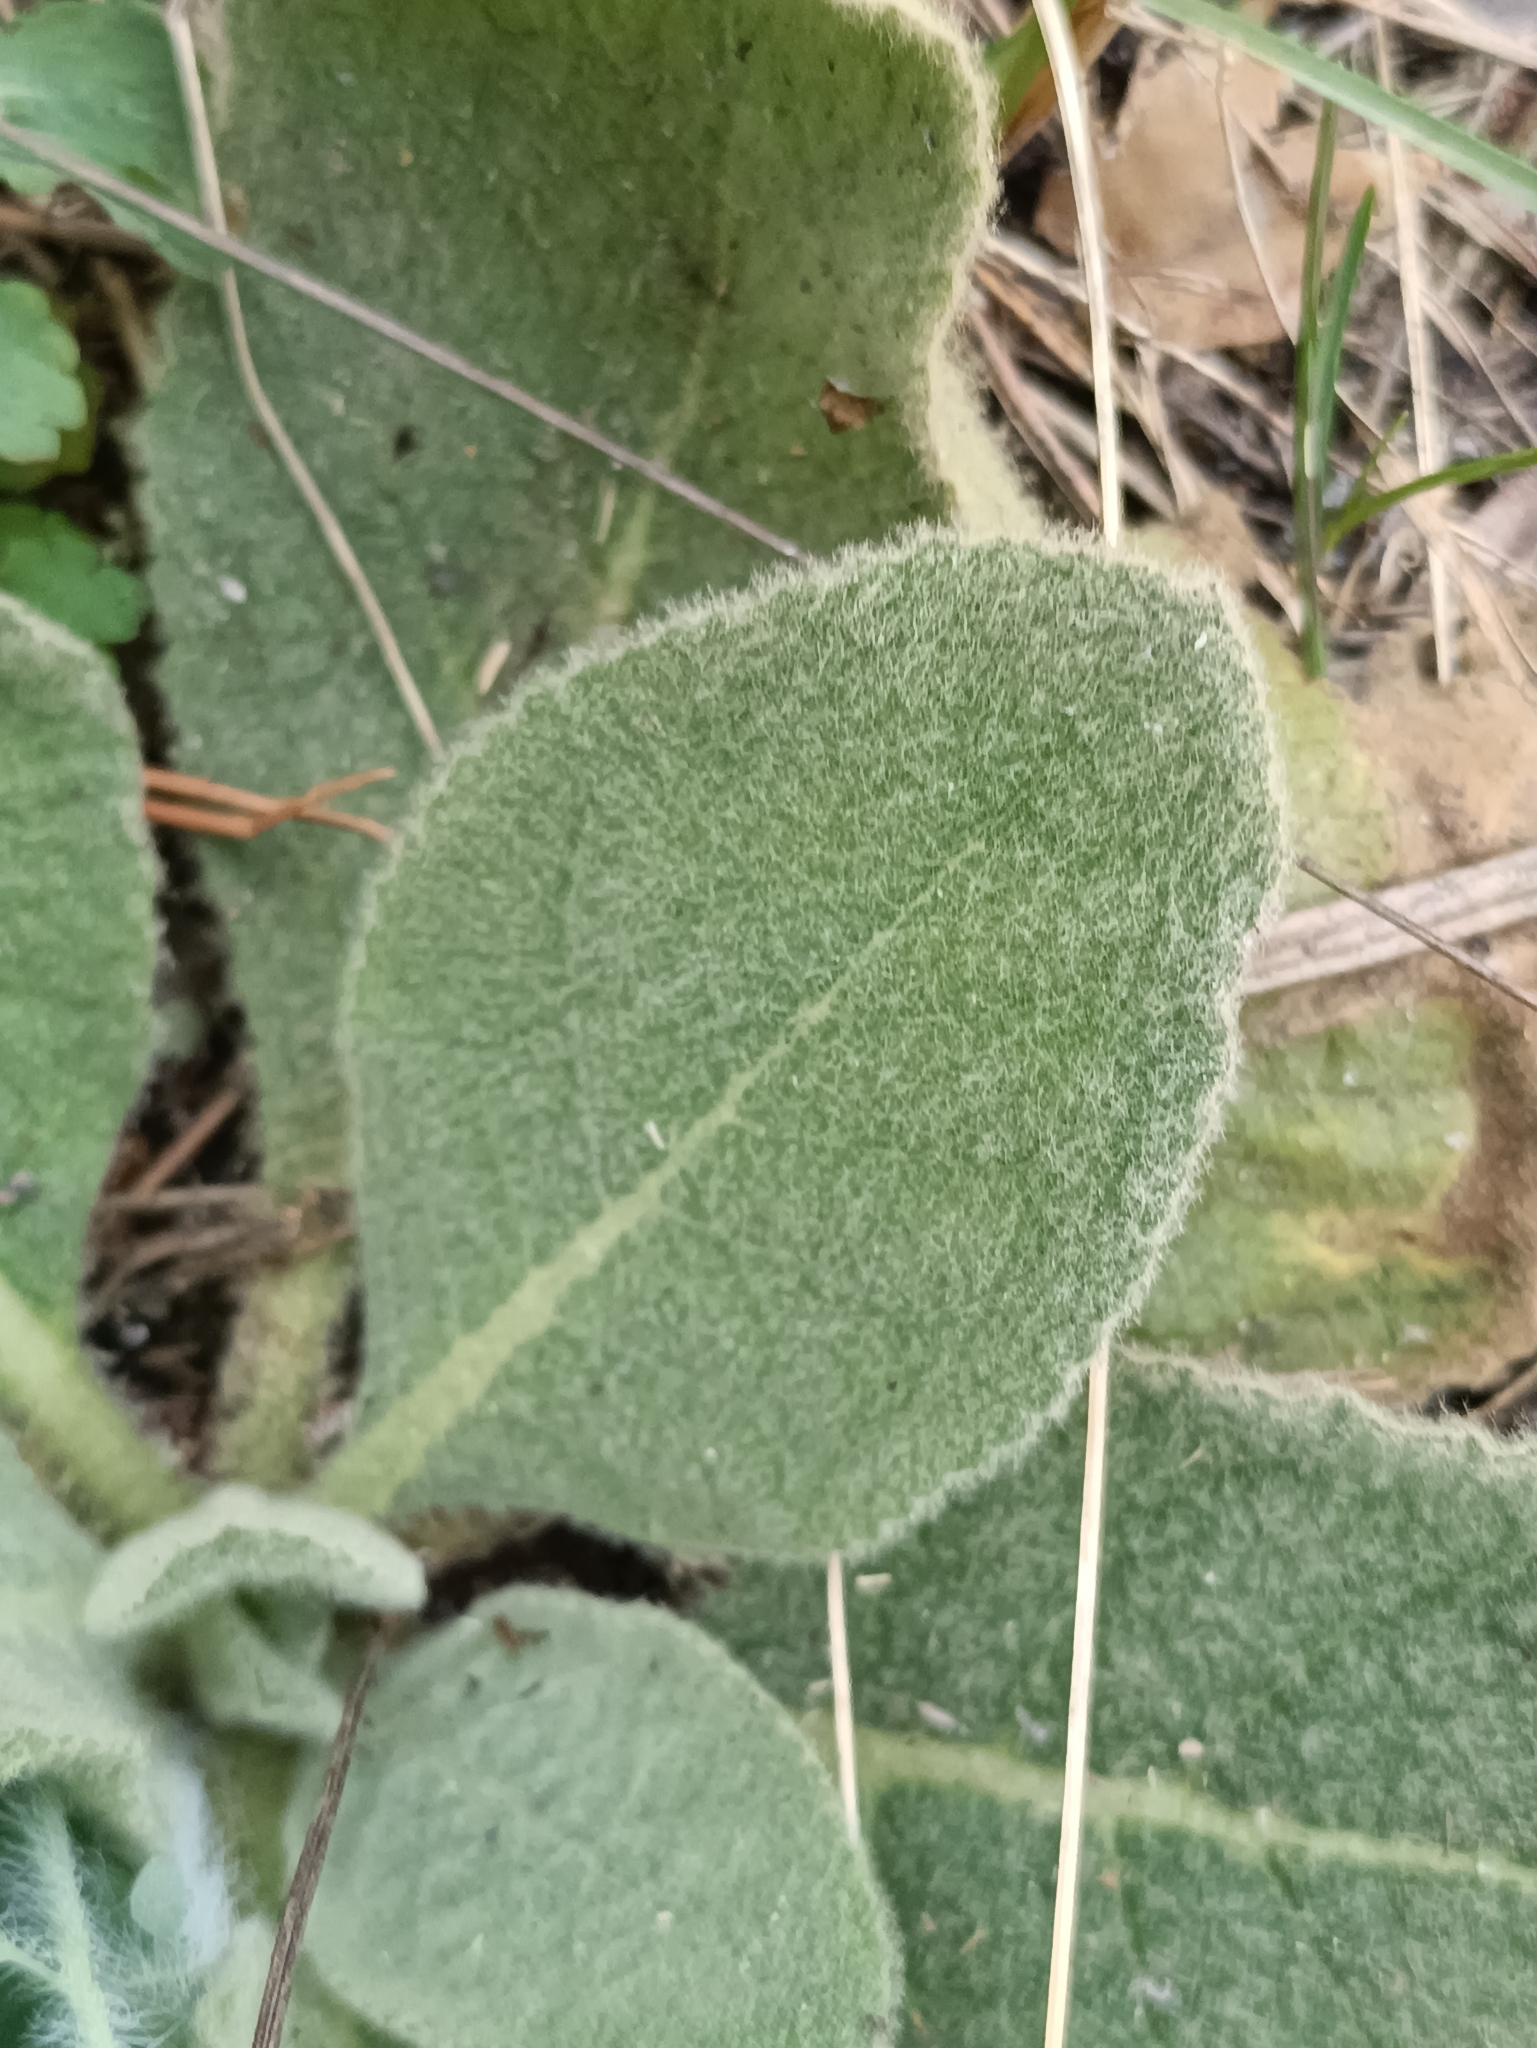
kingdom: Plantae
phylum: Tracheophyta
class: Magnoliopsida
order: Lamiales
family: Scrophulariaceae
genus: Verbascum
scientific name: Verbascum thapsus
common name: Common mullein
